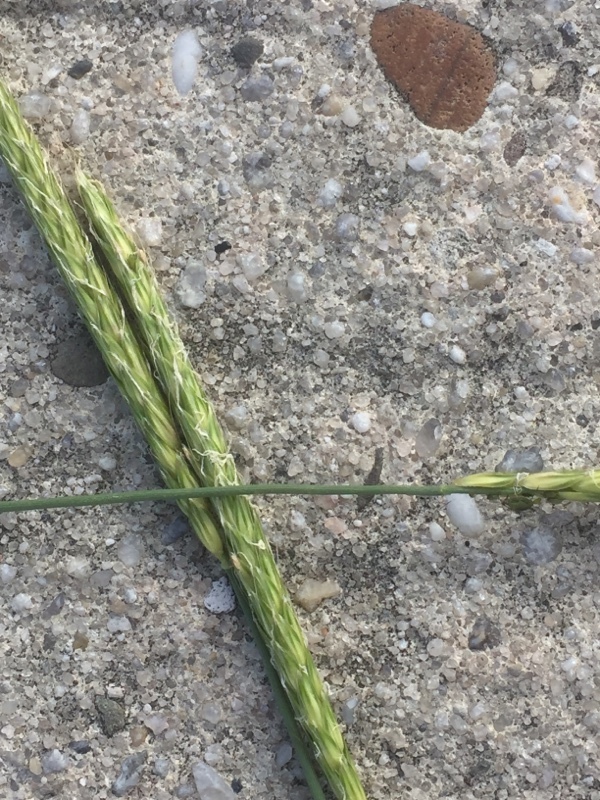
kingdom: Plantae
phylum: Tracheophyta
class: Liliopsida
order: Poales
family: Poaceae
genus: Alopecurus
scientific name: Alopecurus myosuroides
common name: Black-grass
